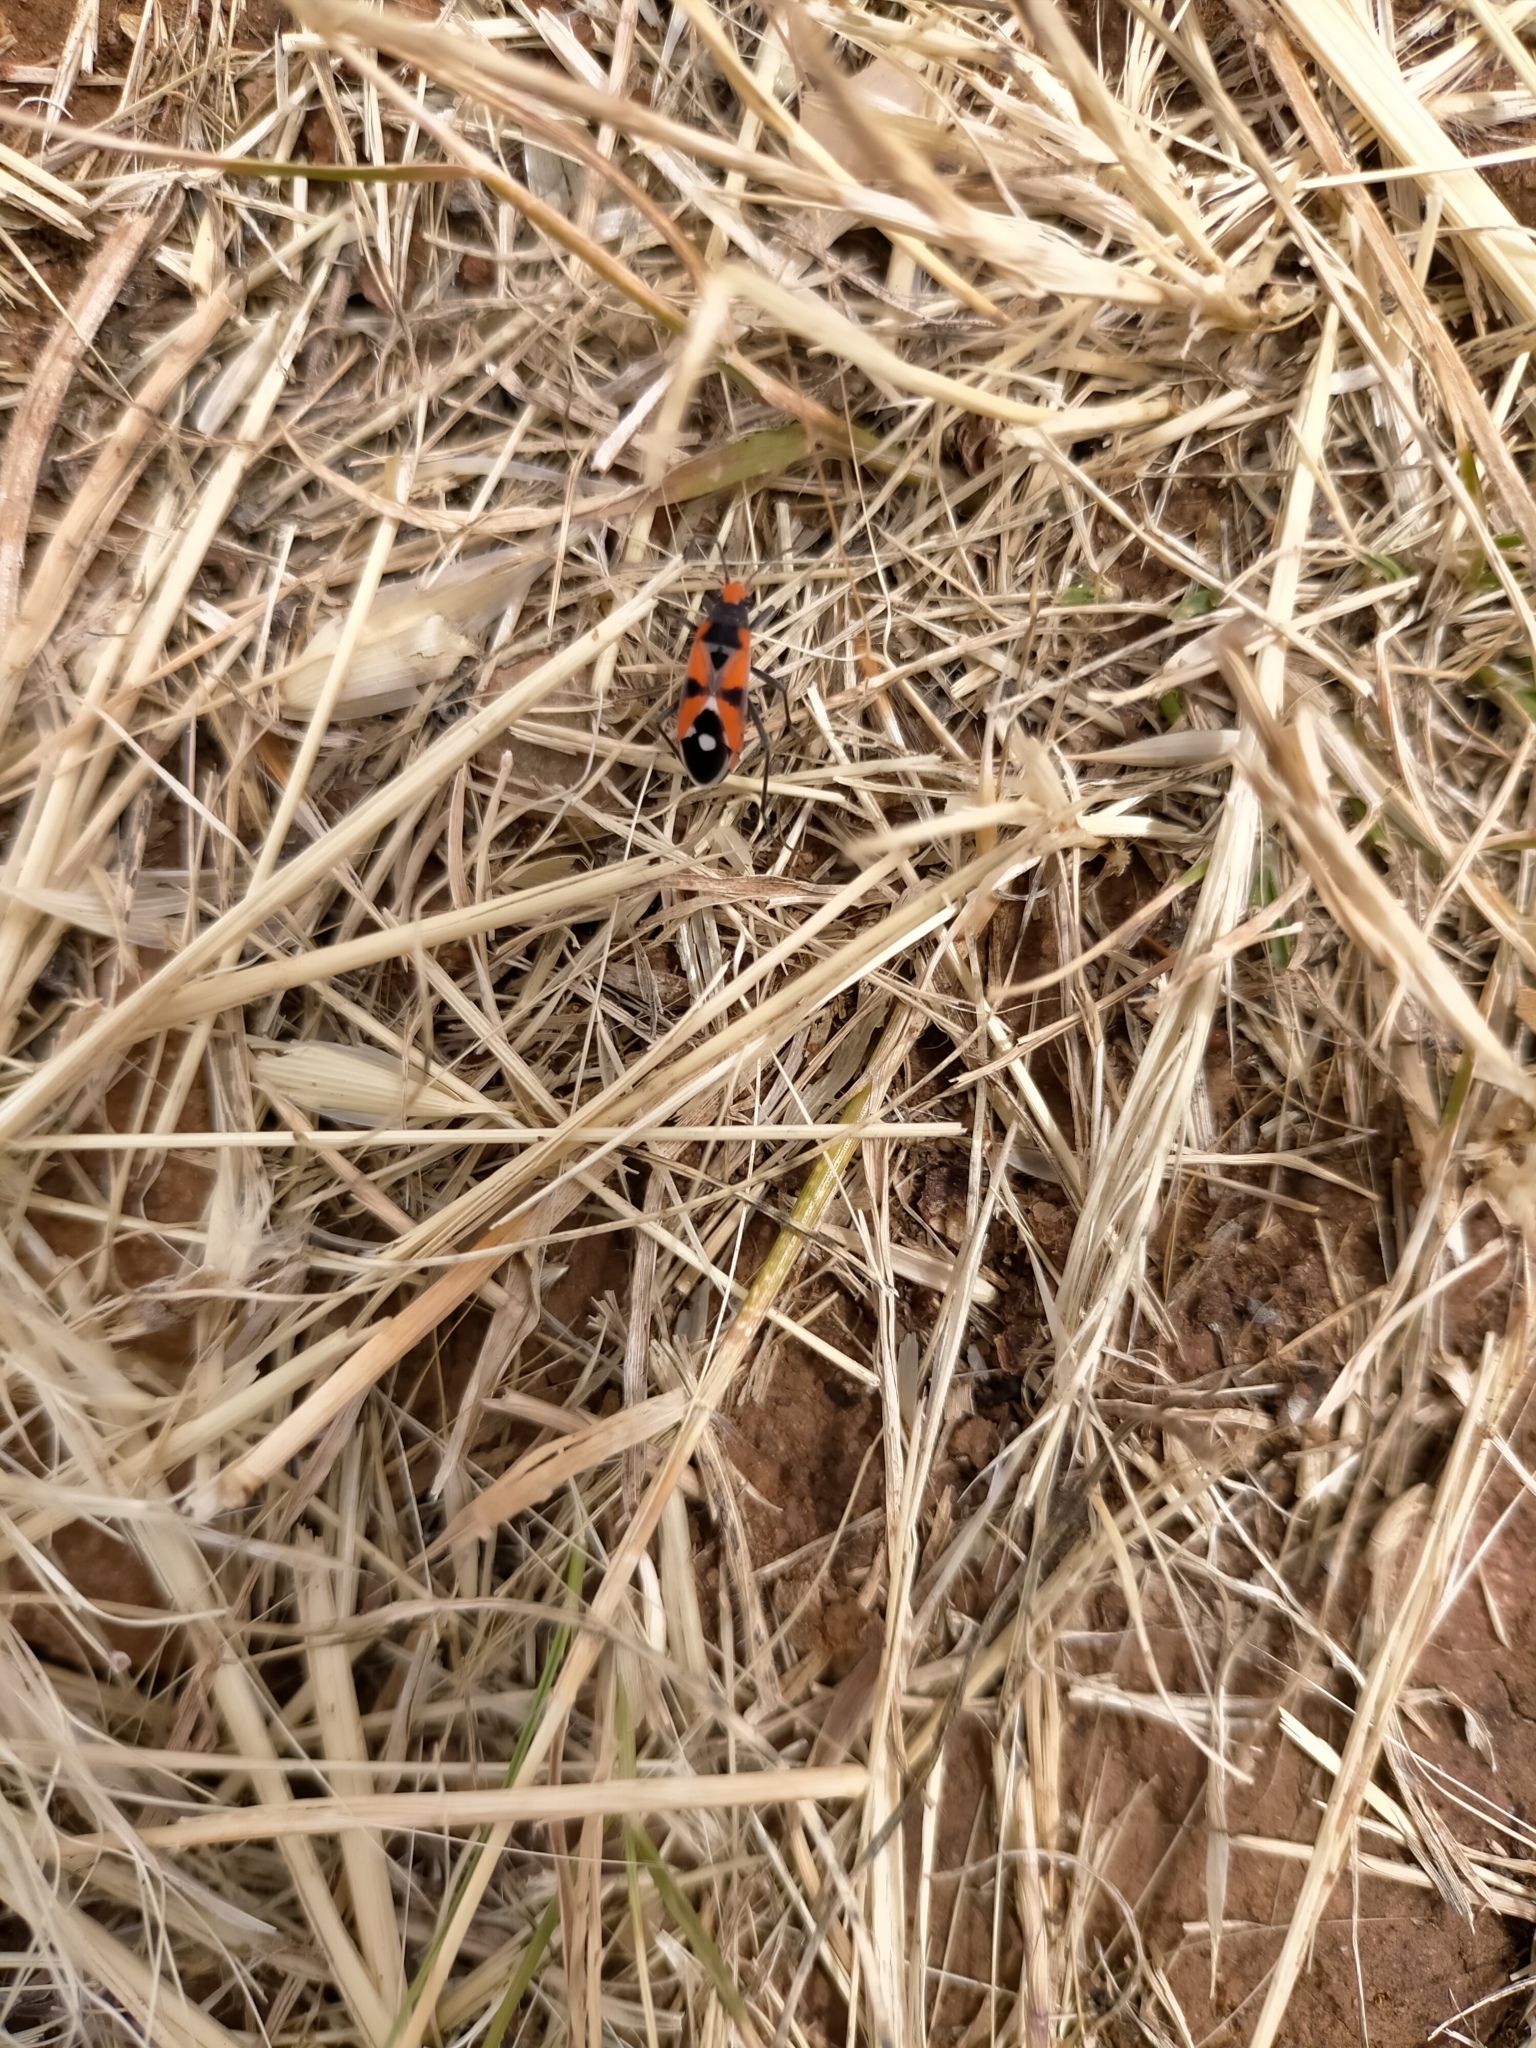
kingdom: Animalia
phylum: Arthropoda
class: Insecta
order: Hemiptera
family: Lygaeidae
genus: Melanerythrus
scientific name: Melanerythrus mactans
